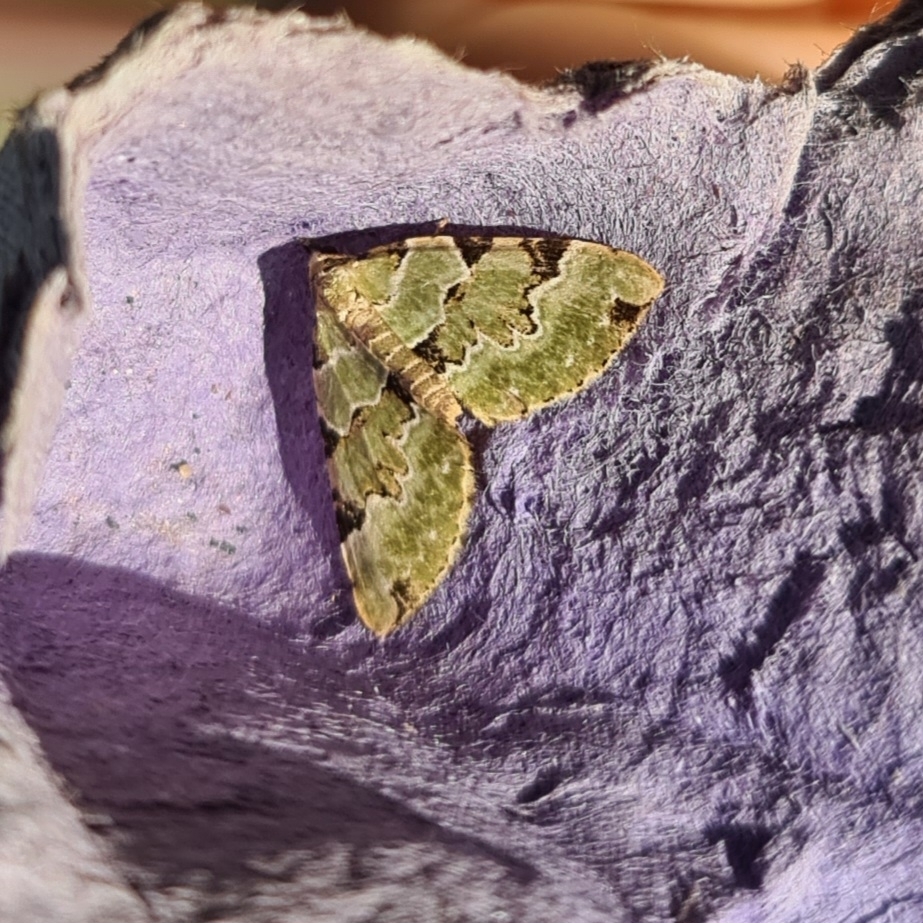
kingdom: Animalia
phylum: Arthropoda
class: Insecta
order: Lepidoptera
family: Geometridae
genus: Colostygia
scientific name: Colostygia pectinataria
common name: Green carpet
